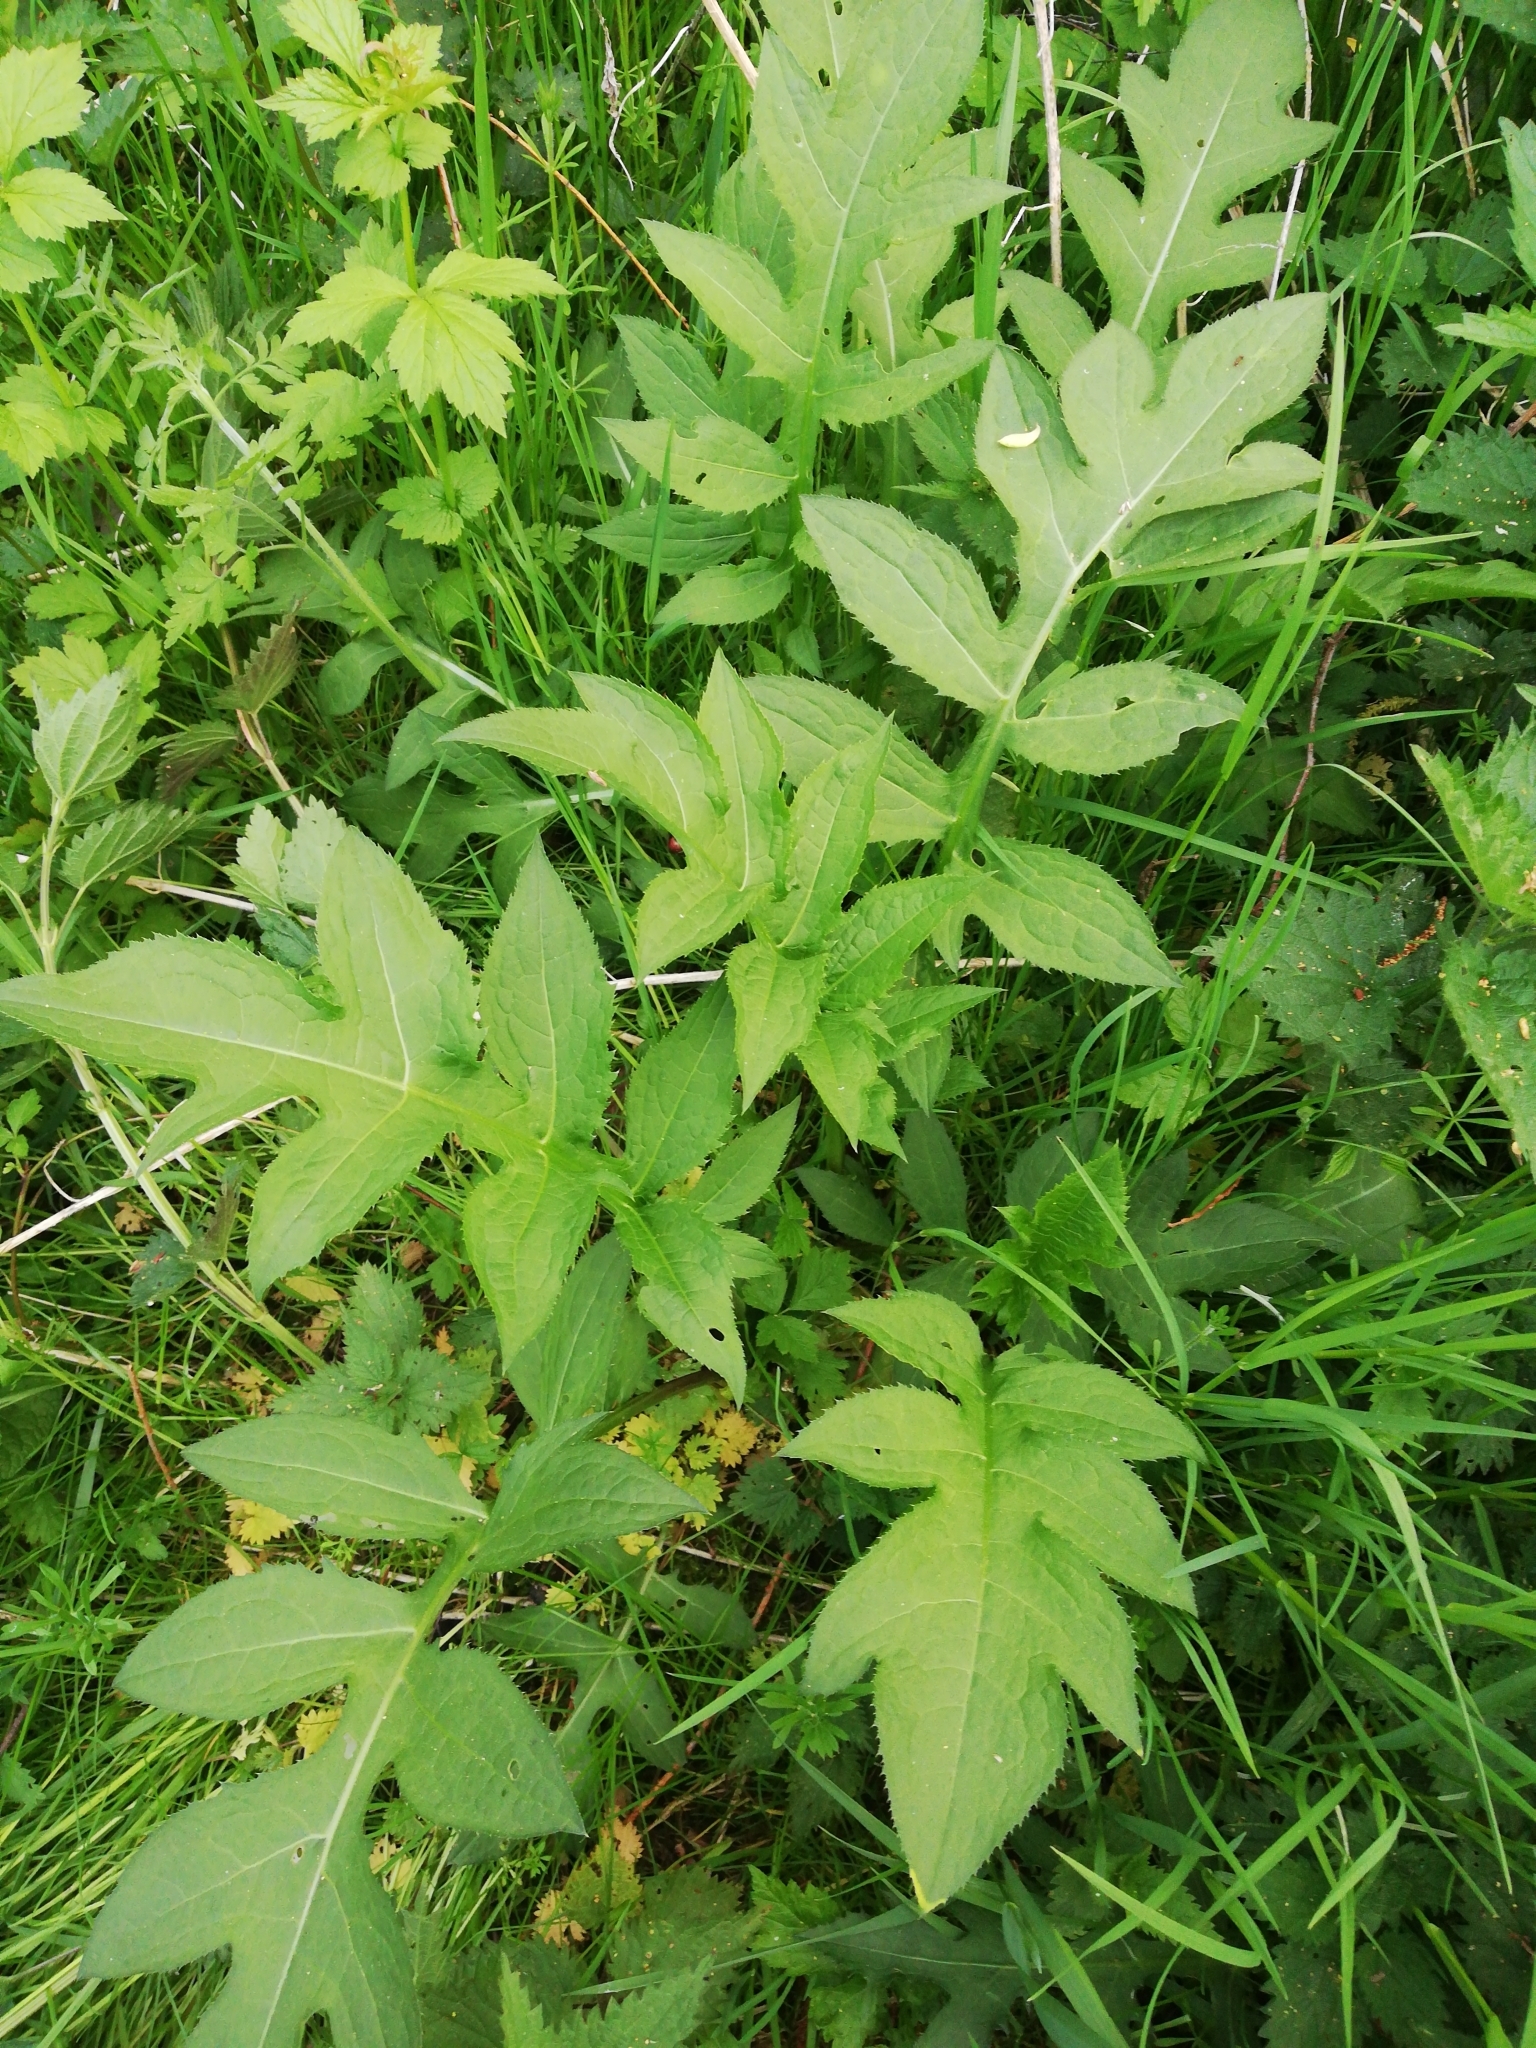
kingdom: Plantae
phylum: Tracheophyta
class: Magnoliopsida
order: Asterales
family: Asteraceae
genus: Cirsium
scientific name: Cirsium oleraceum
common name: Cabbage thistle
